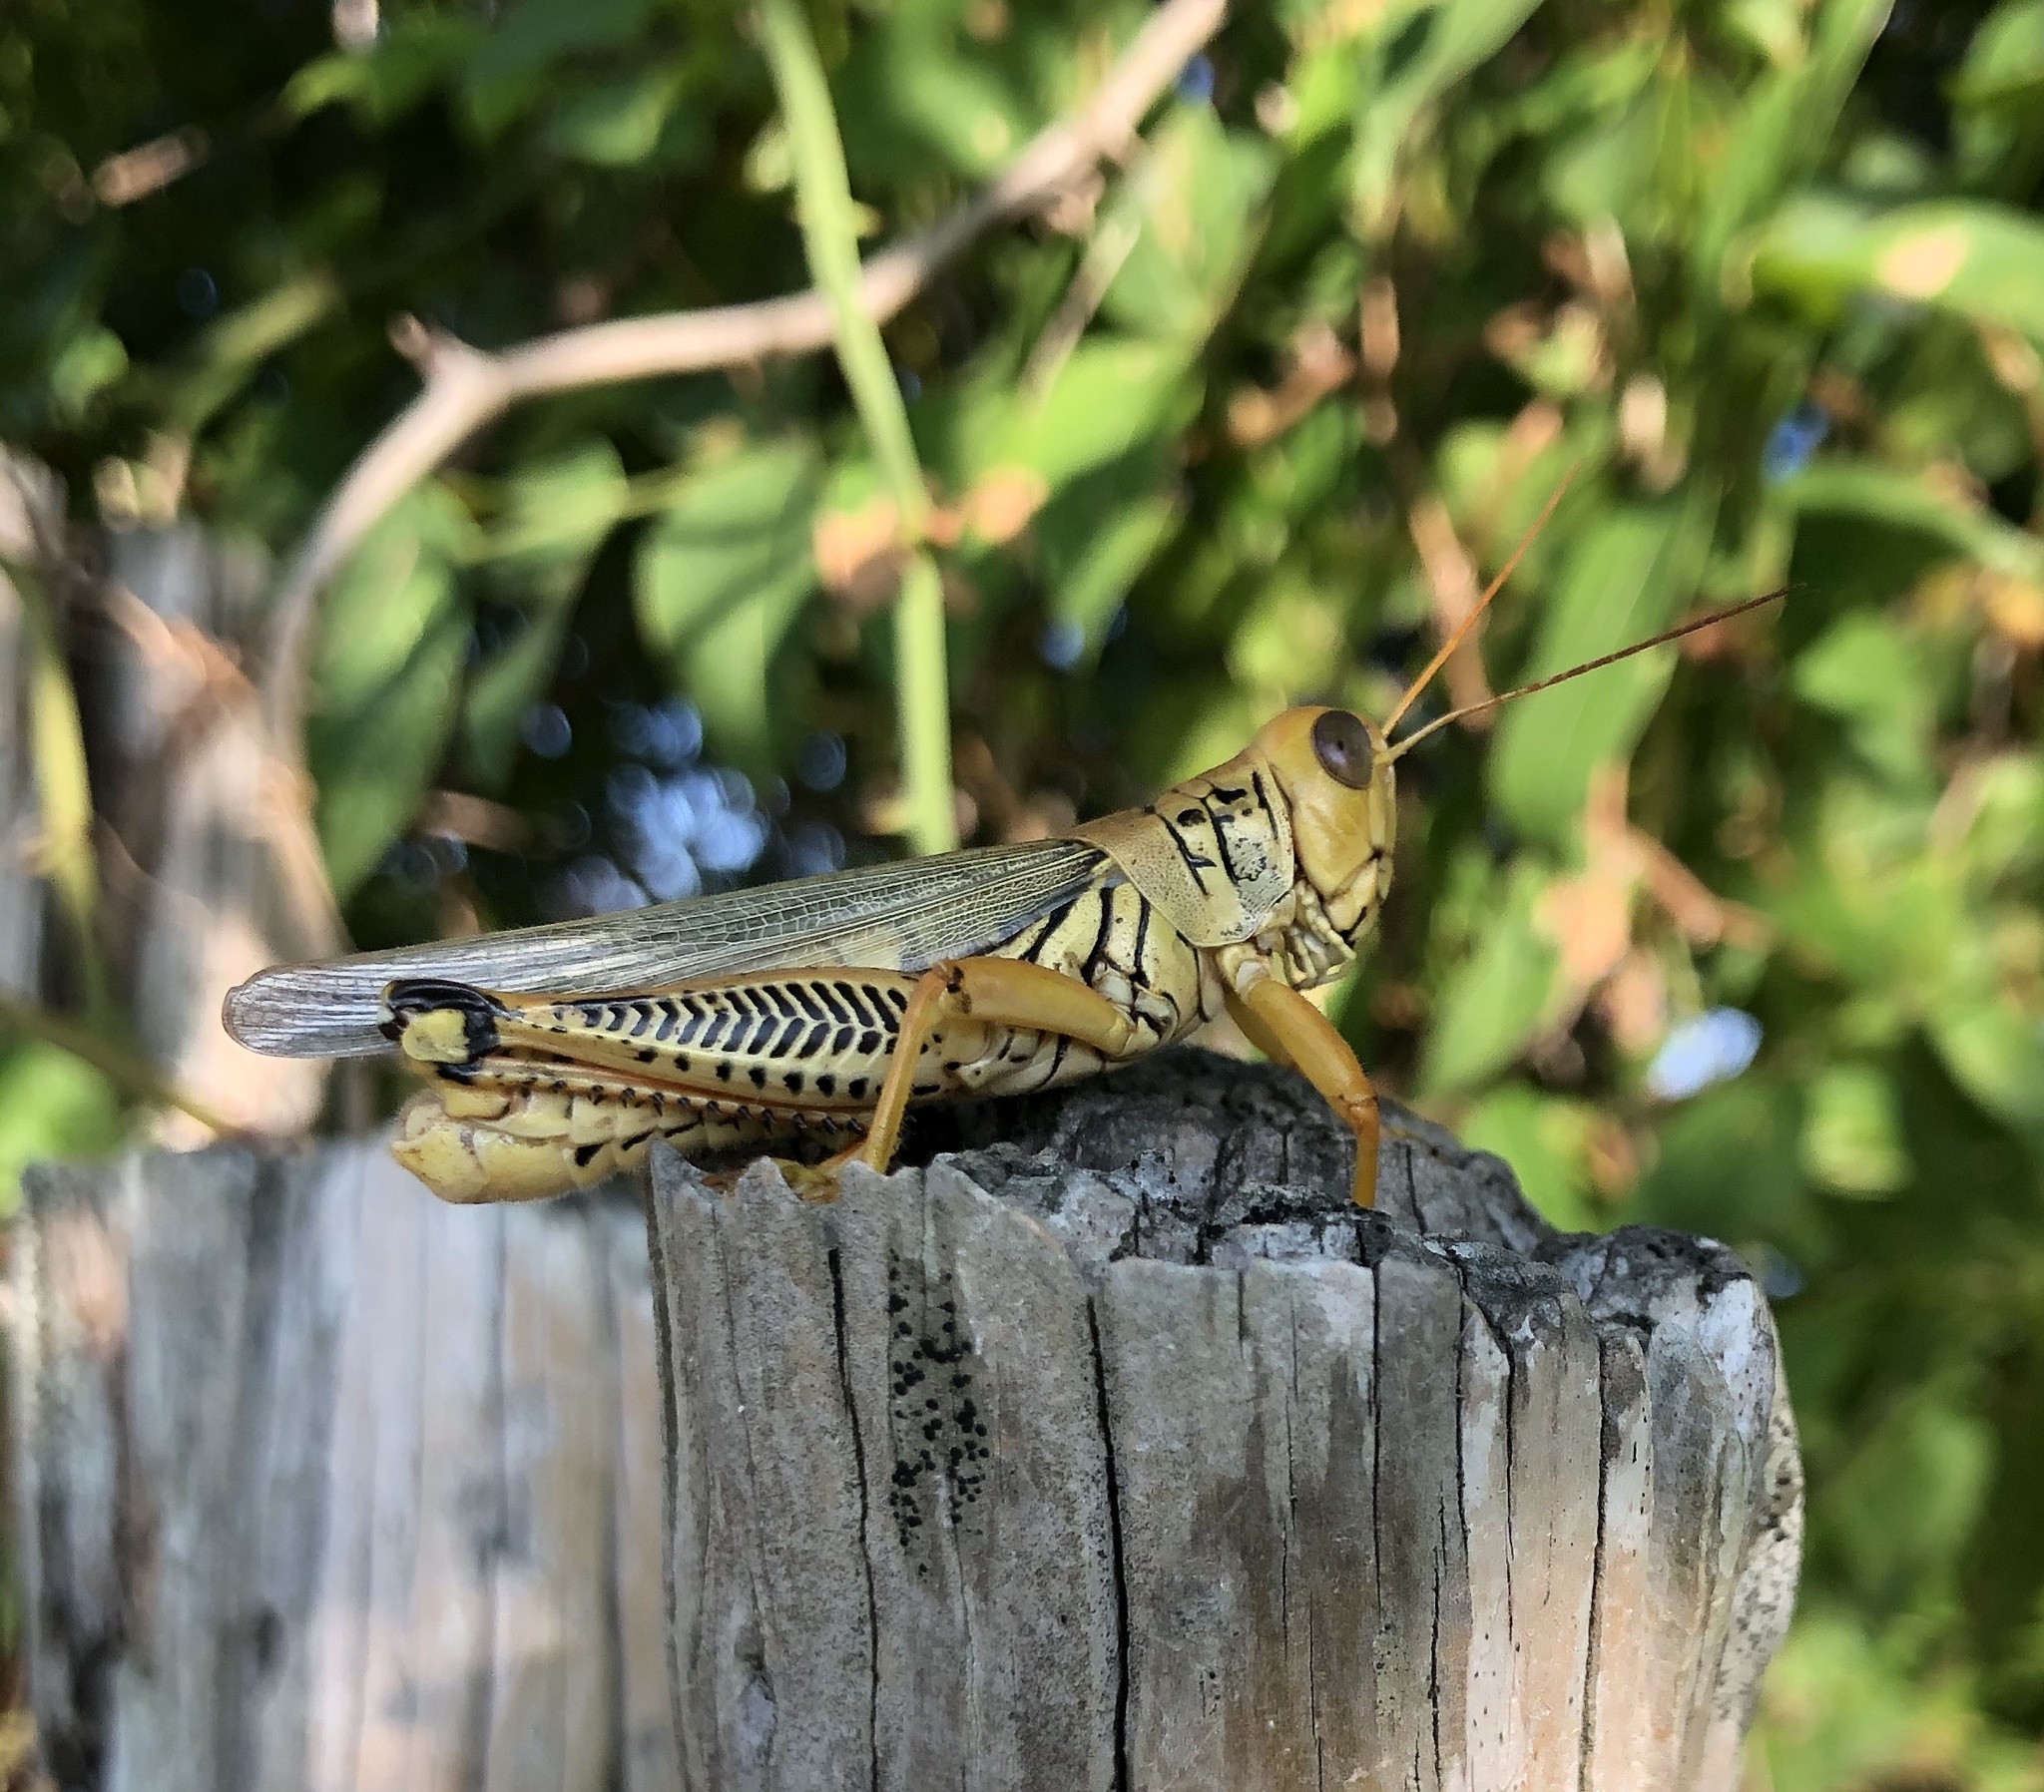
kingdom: Animalia
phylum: Arthropoda
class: Insecta
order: Orthoptera
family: Acrididae
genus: Melanoplus
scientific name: Melanoplus differentialis
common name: Differential grasshopper
